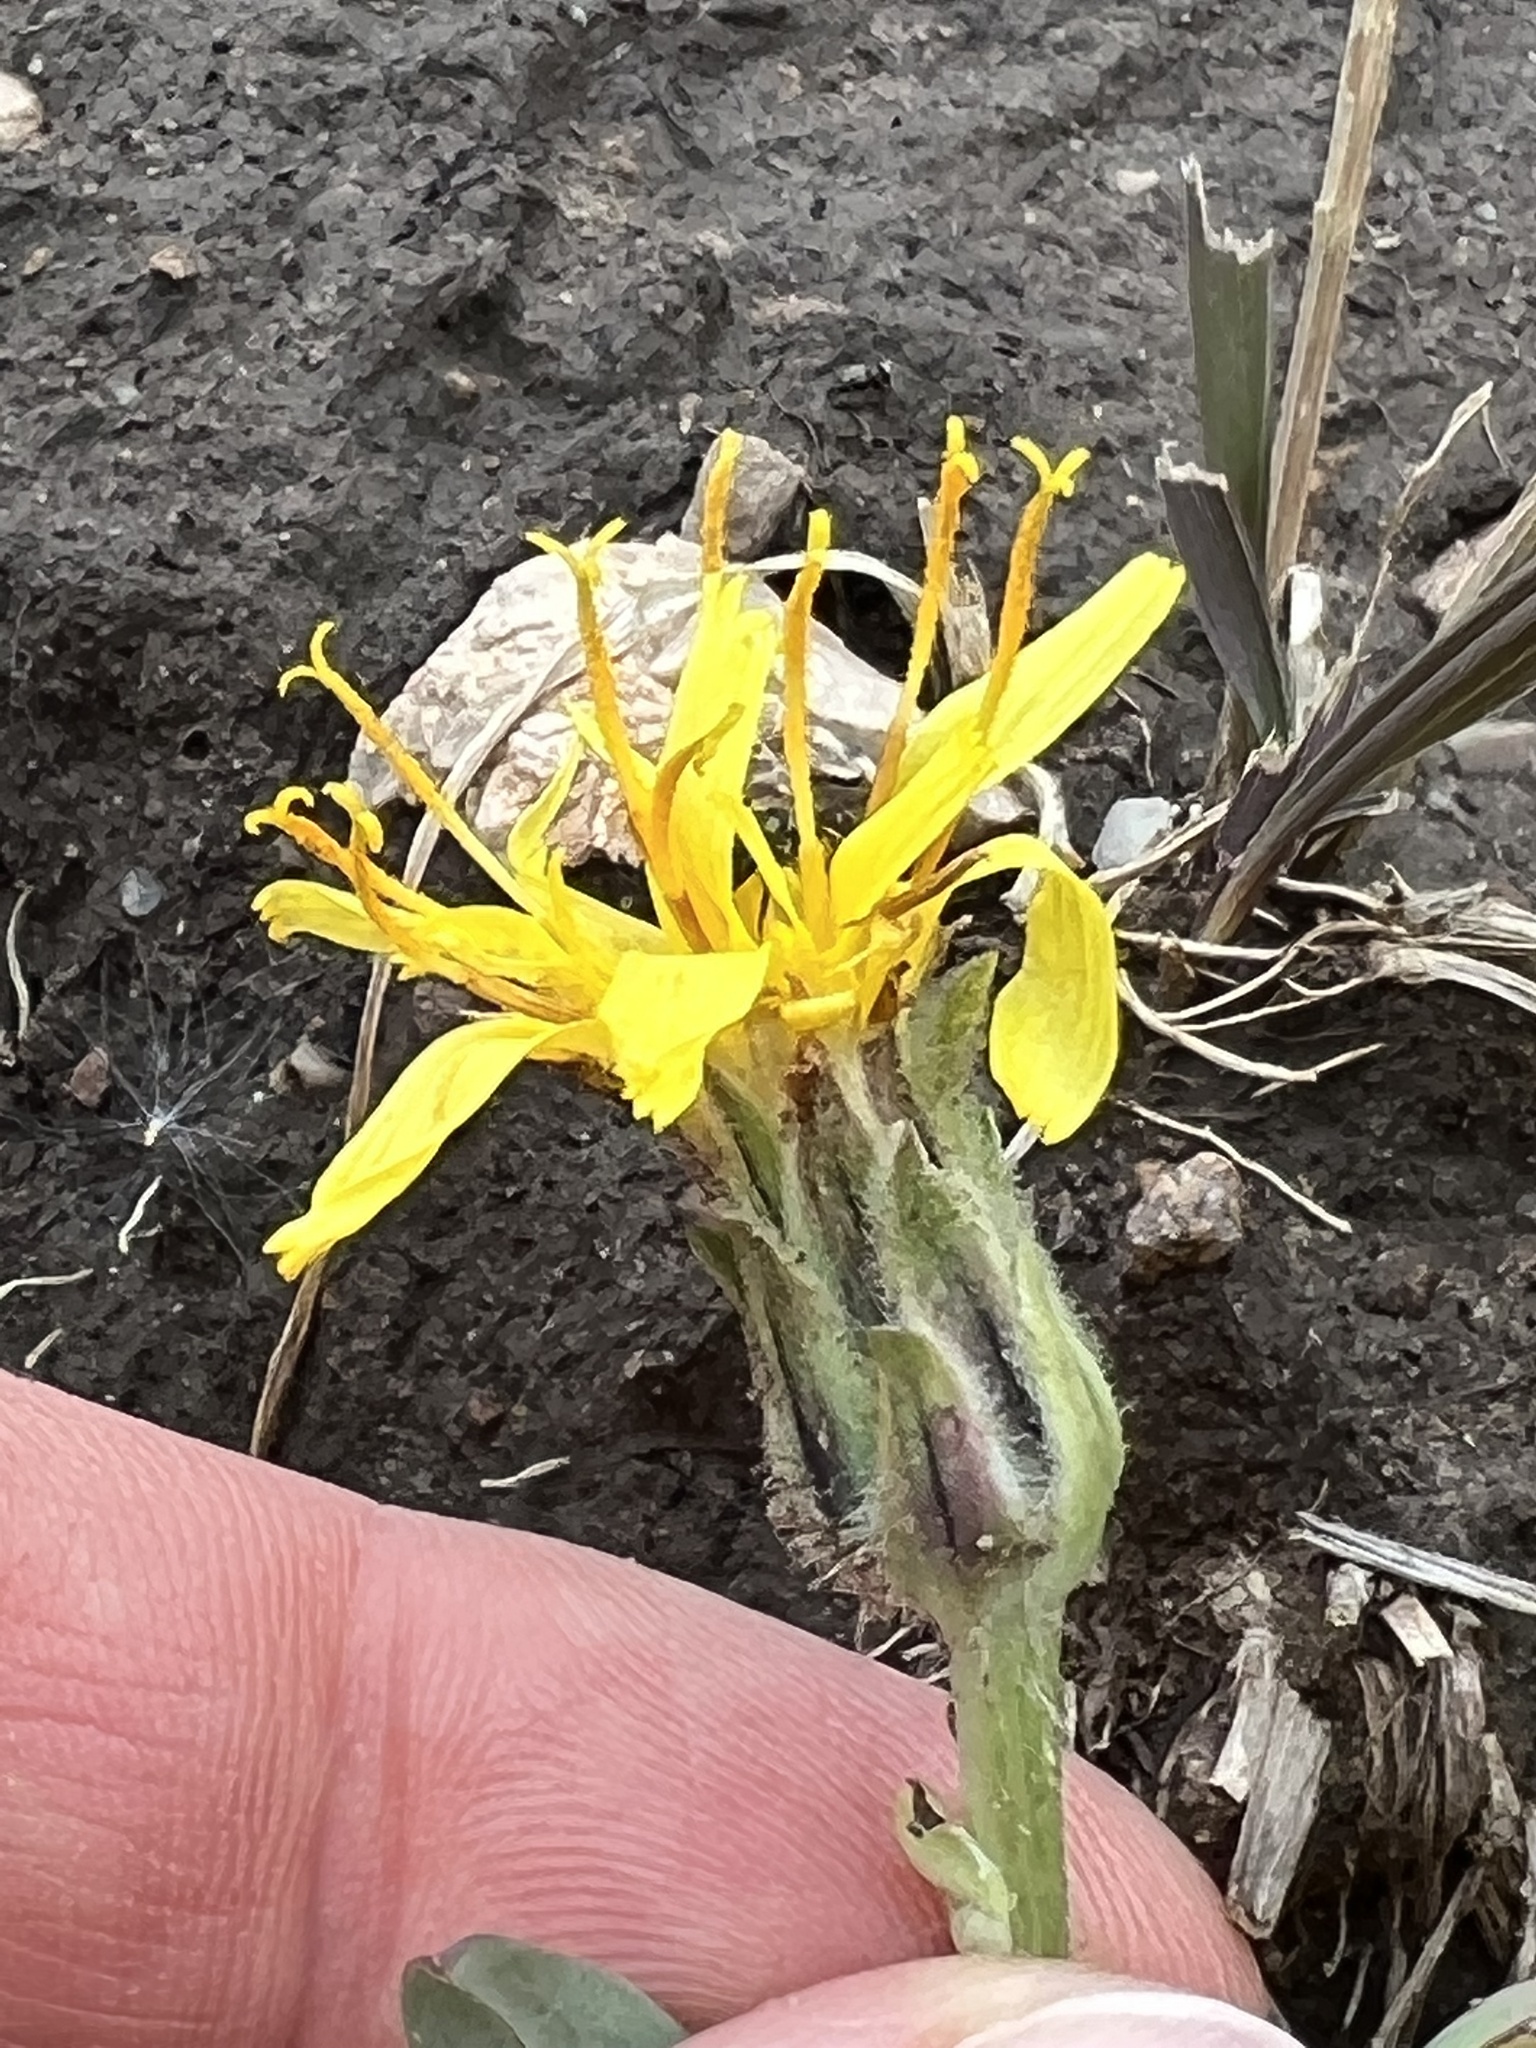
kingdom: Plantae
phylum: Tracheophyta
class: Magnoliopsida
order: Asterales
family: Asteraceae
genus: Agoseris
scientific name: Agoseris glauca
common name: Prairie agoseris
